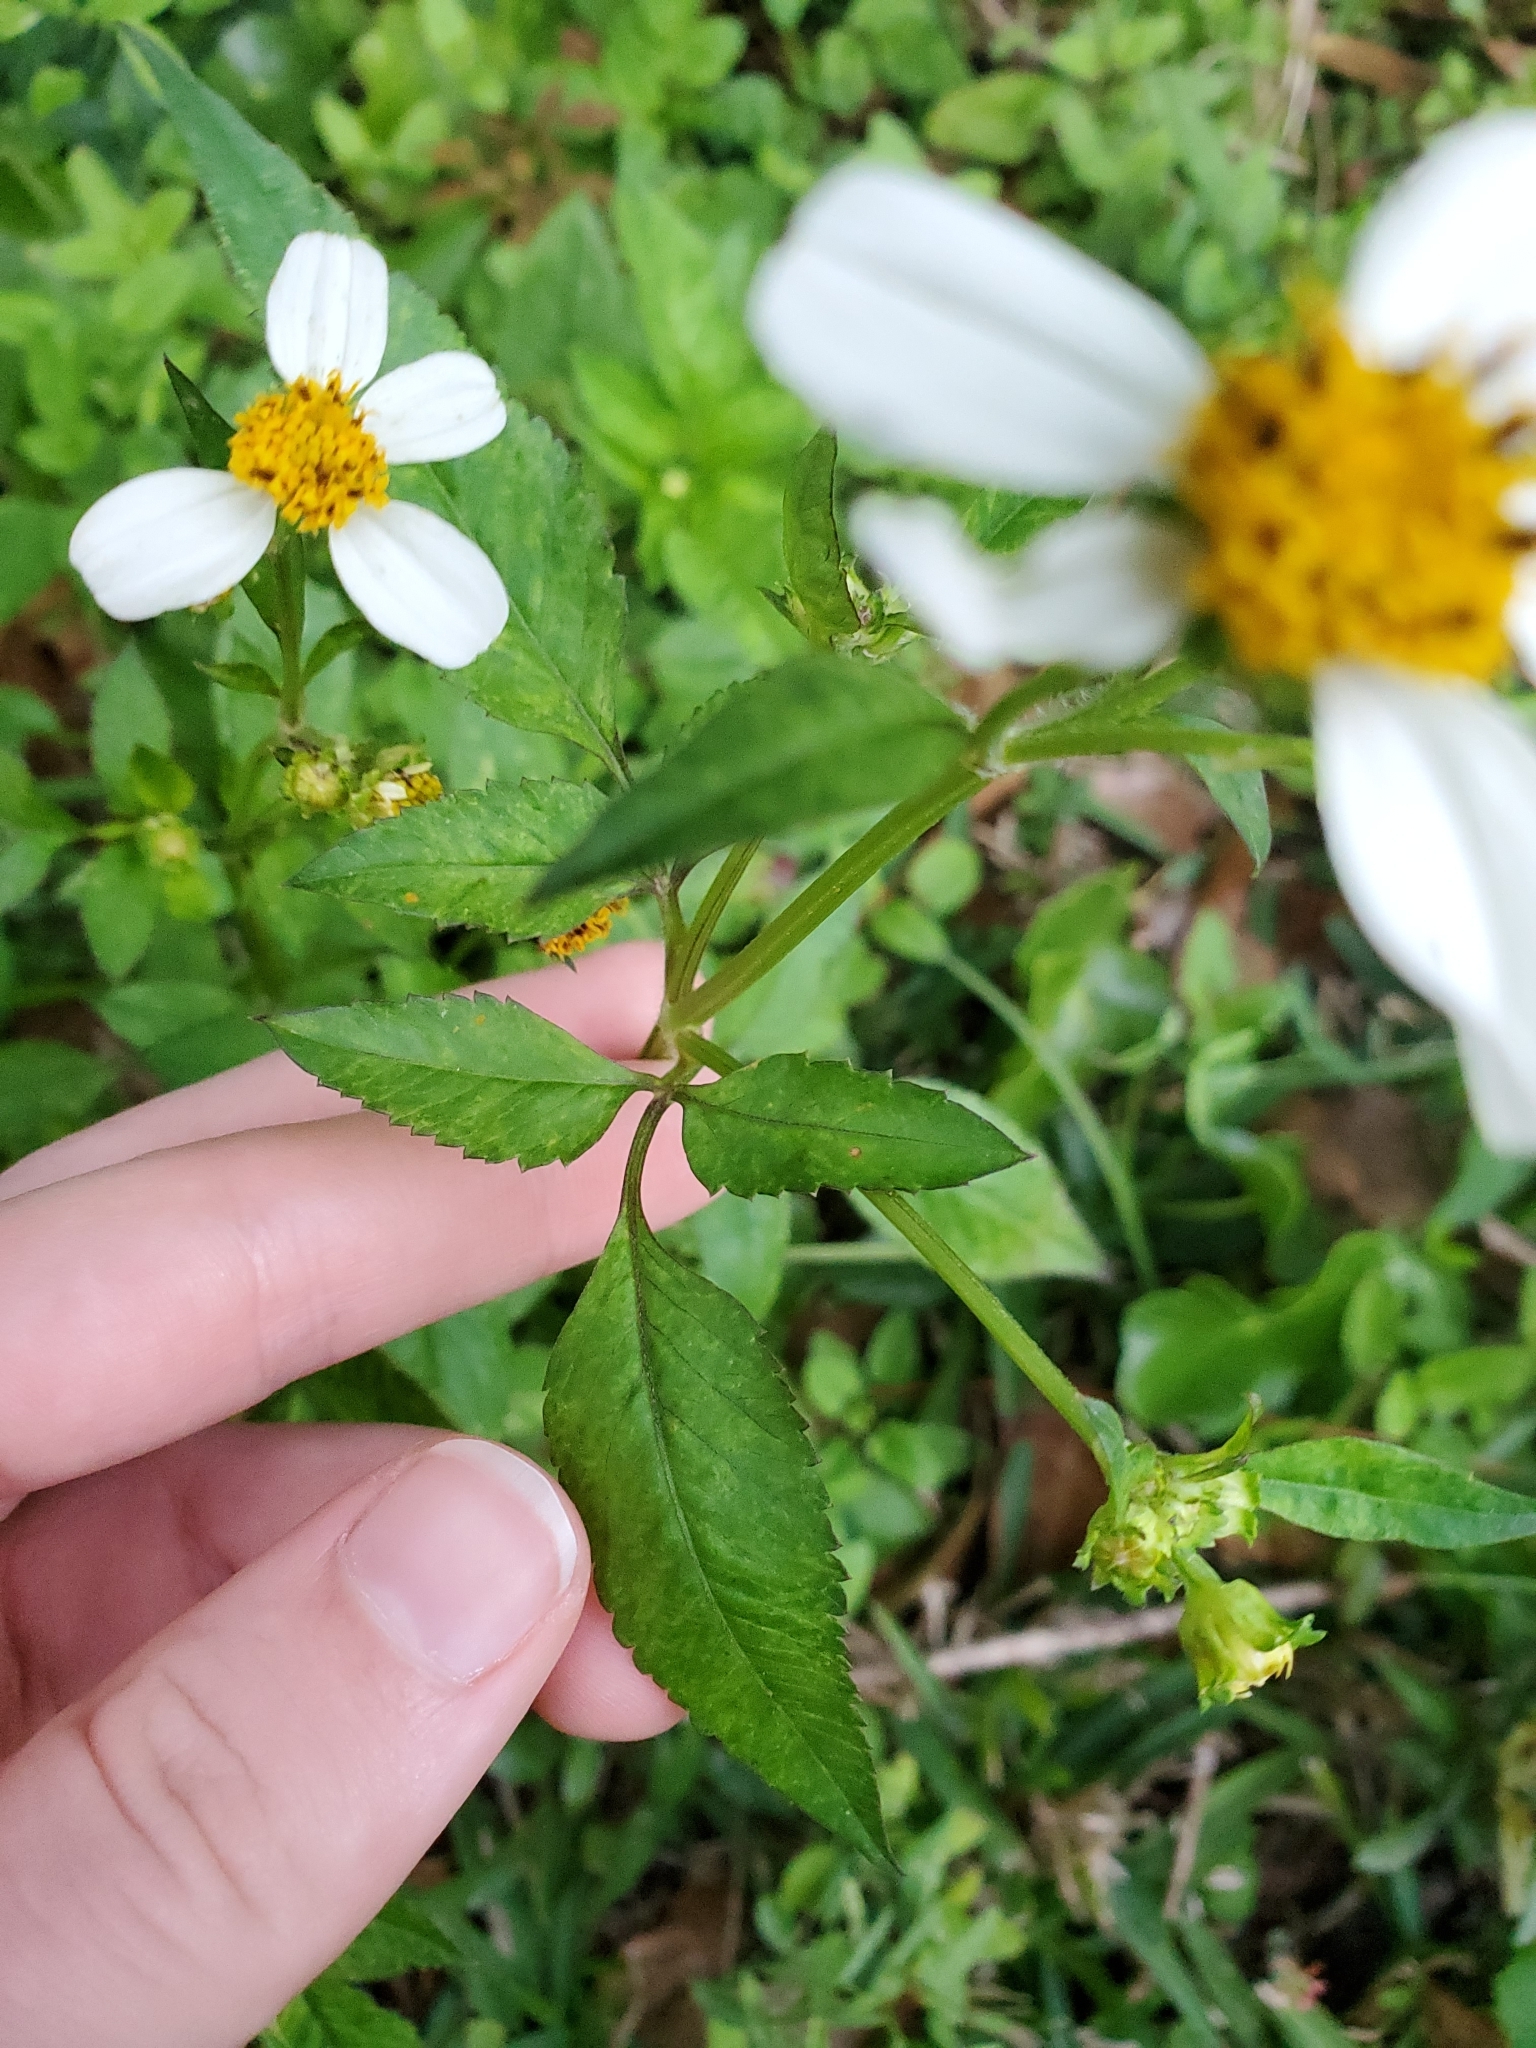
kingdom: Plantae
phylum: Tracheophyta
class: Magnoliopsida
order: Asterales
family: Asteraceae
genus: Bidens
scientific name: Bidens alba
